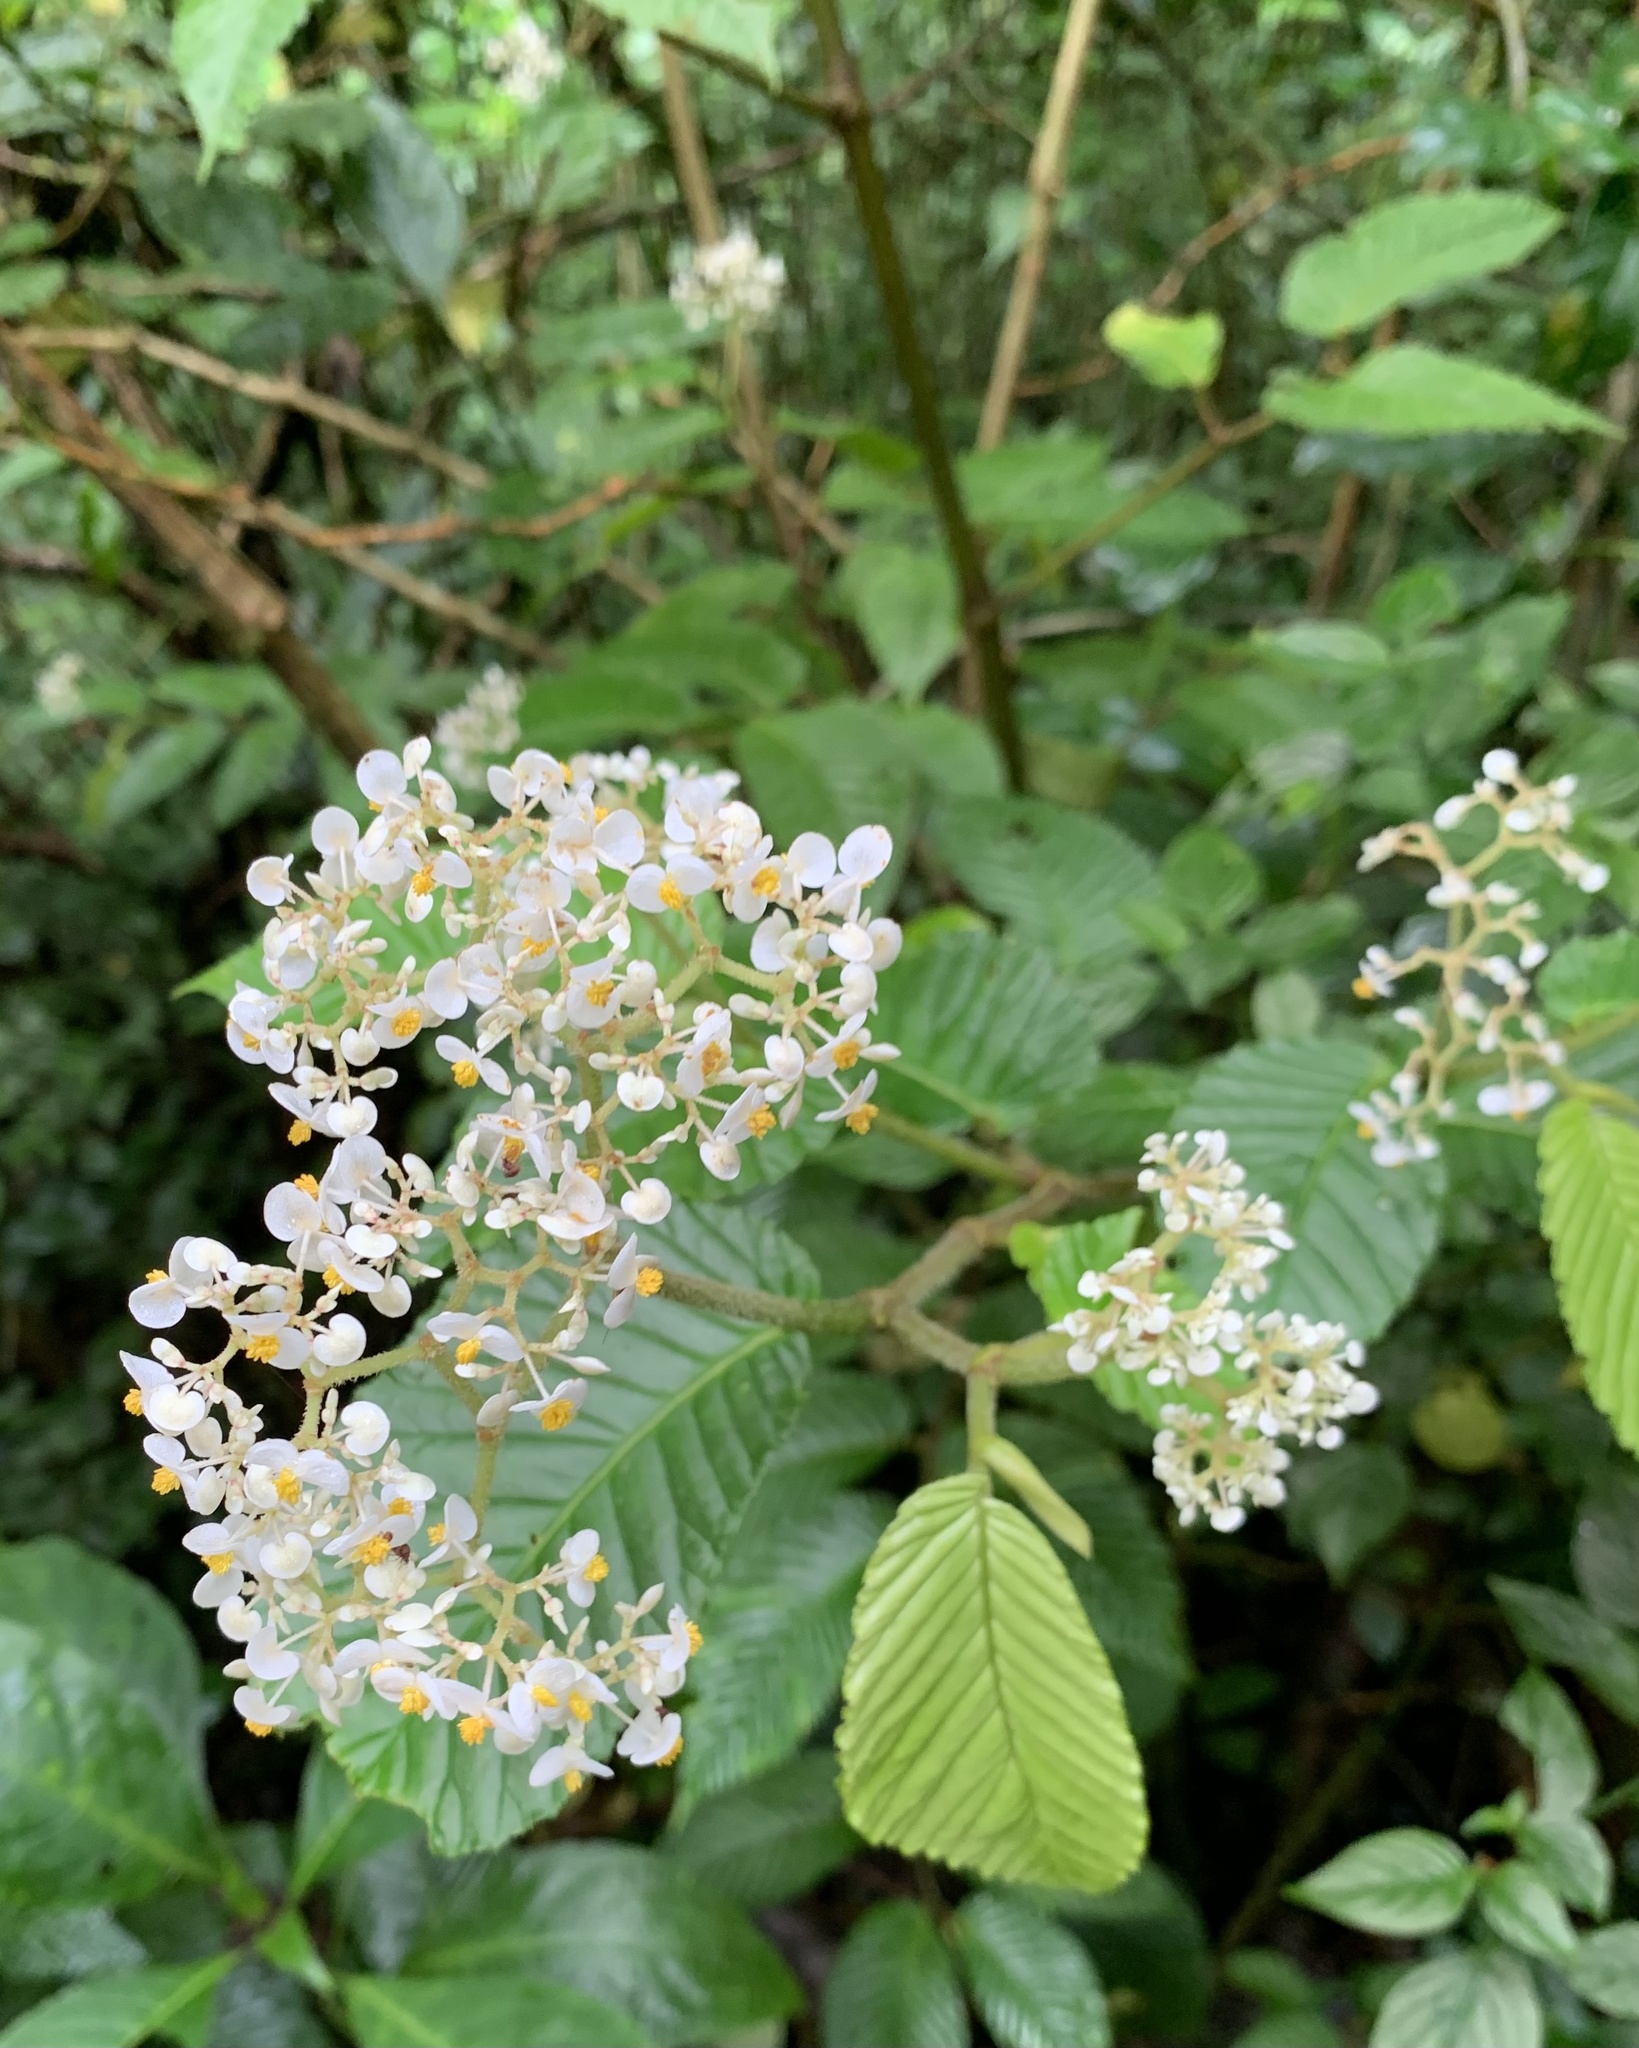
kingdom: Plantae
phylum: Tracheophyta
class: Magnoliopsida
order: Cucurbitales
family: Begoniaceae
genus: Begonia
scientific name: Begonia cooperi
